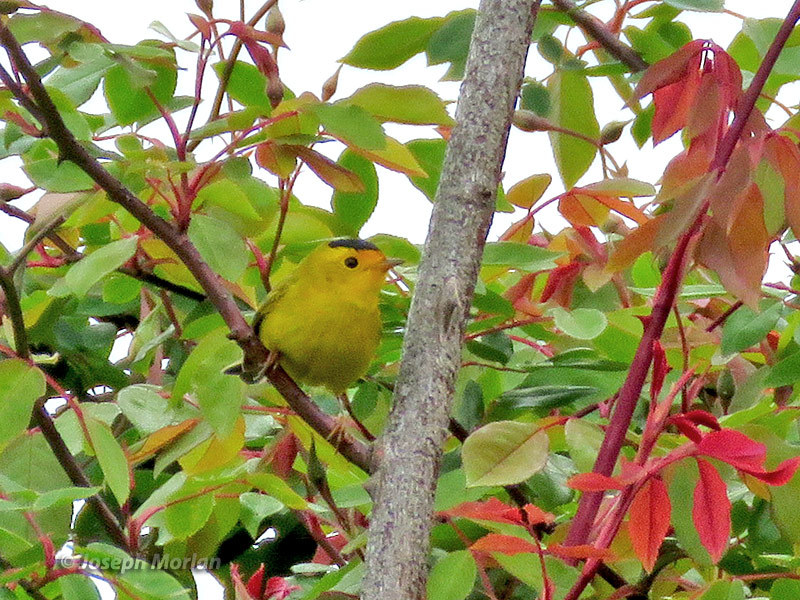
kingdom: Animalia
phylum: Chordata
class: Aves
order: Passeriformes
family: Parulidae
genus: Cardellina
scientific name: Cardellina pusilla
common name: Wilson's warbler
